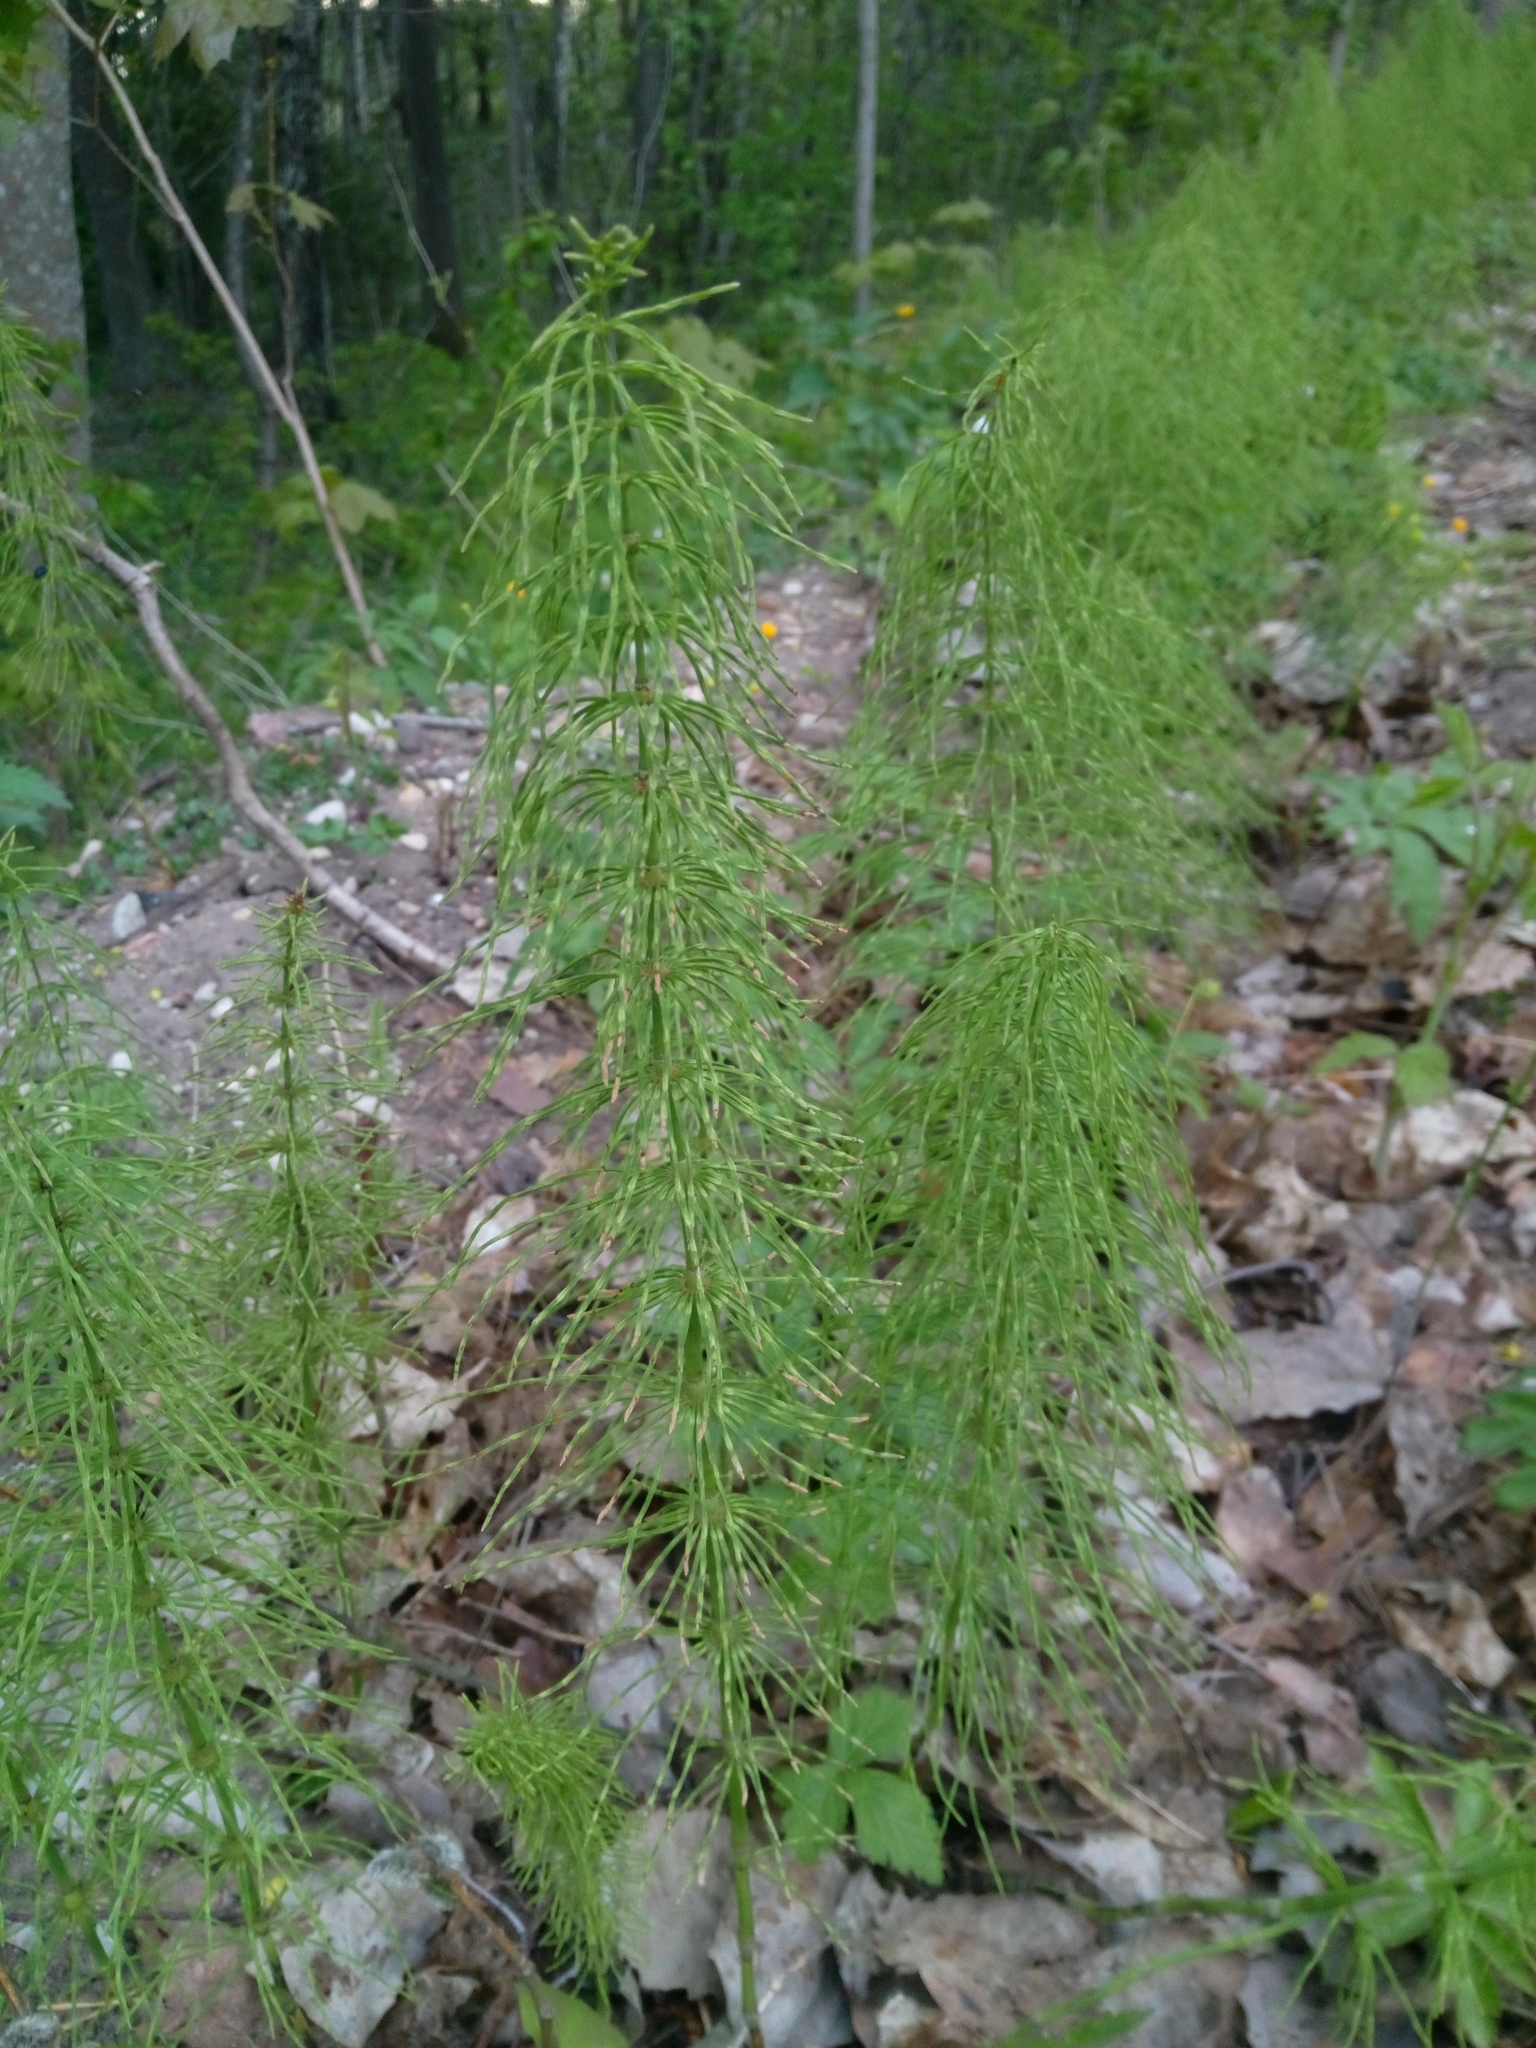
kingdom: Plantae
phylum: Tracheophyta
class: Polypodiopsida
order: Equisetales
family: Equisetaceae
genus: Equisetum
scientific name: Equisetum pratense
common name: Meadow horsetail
